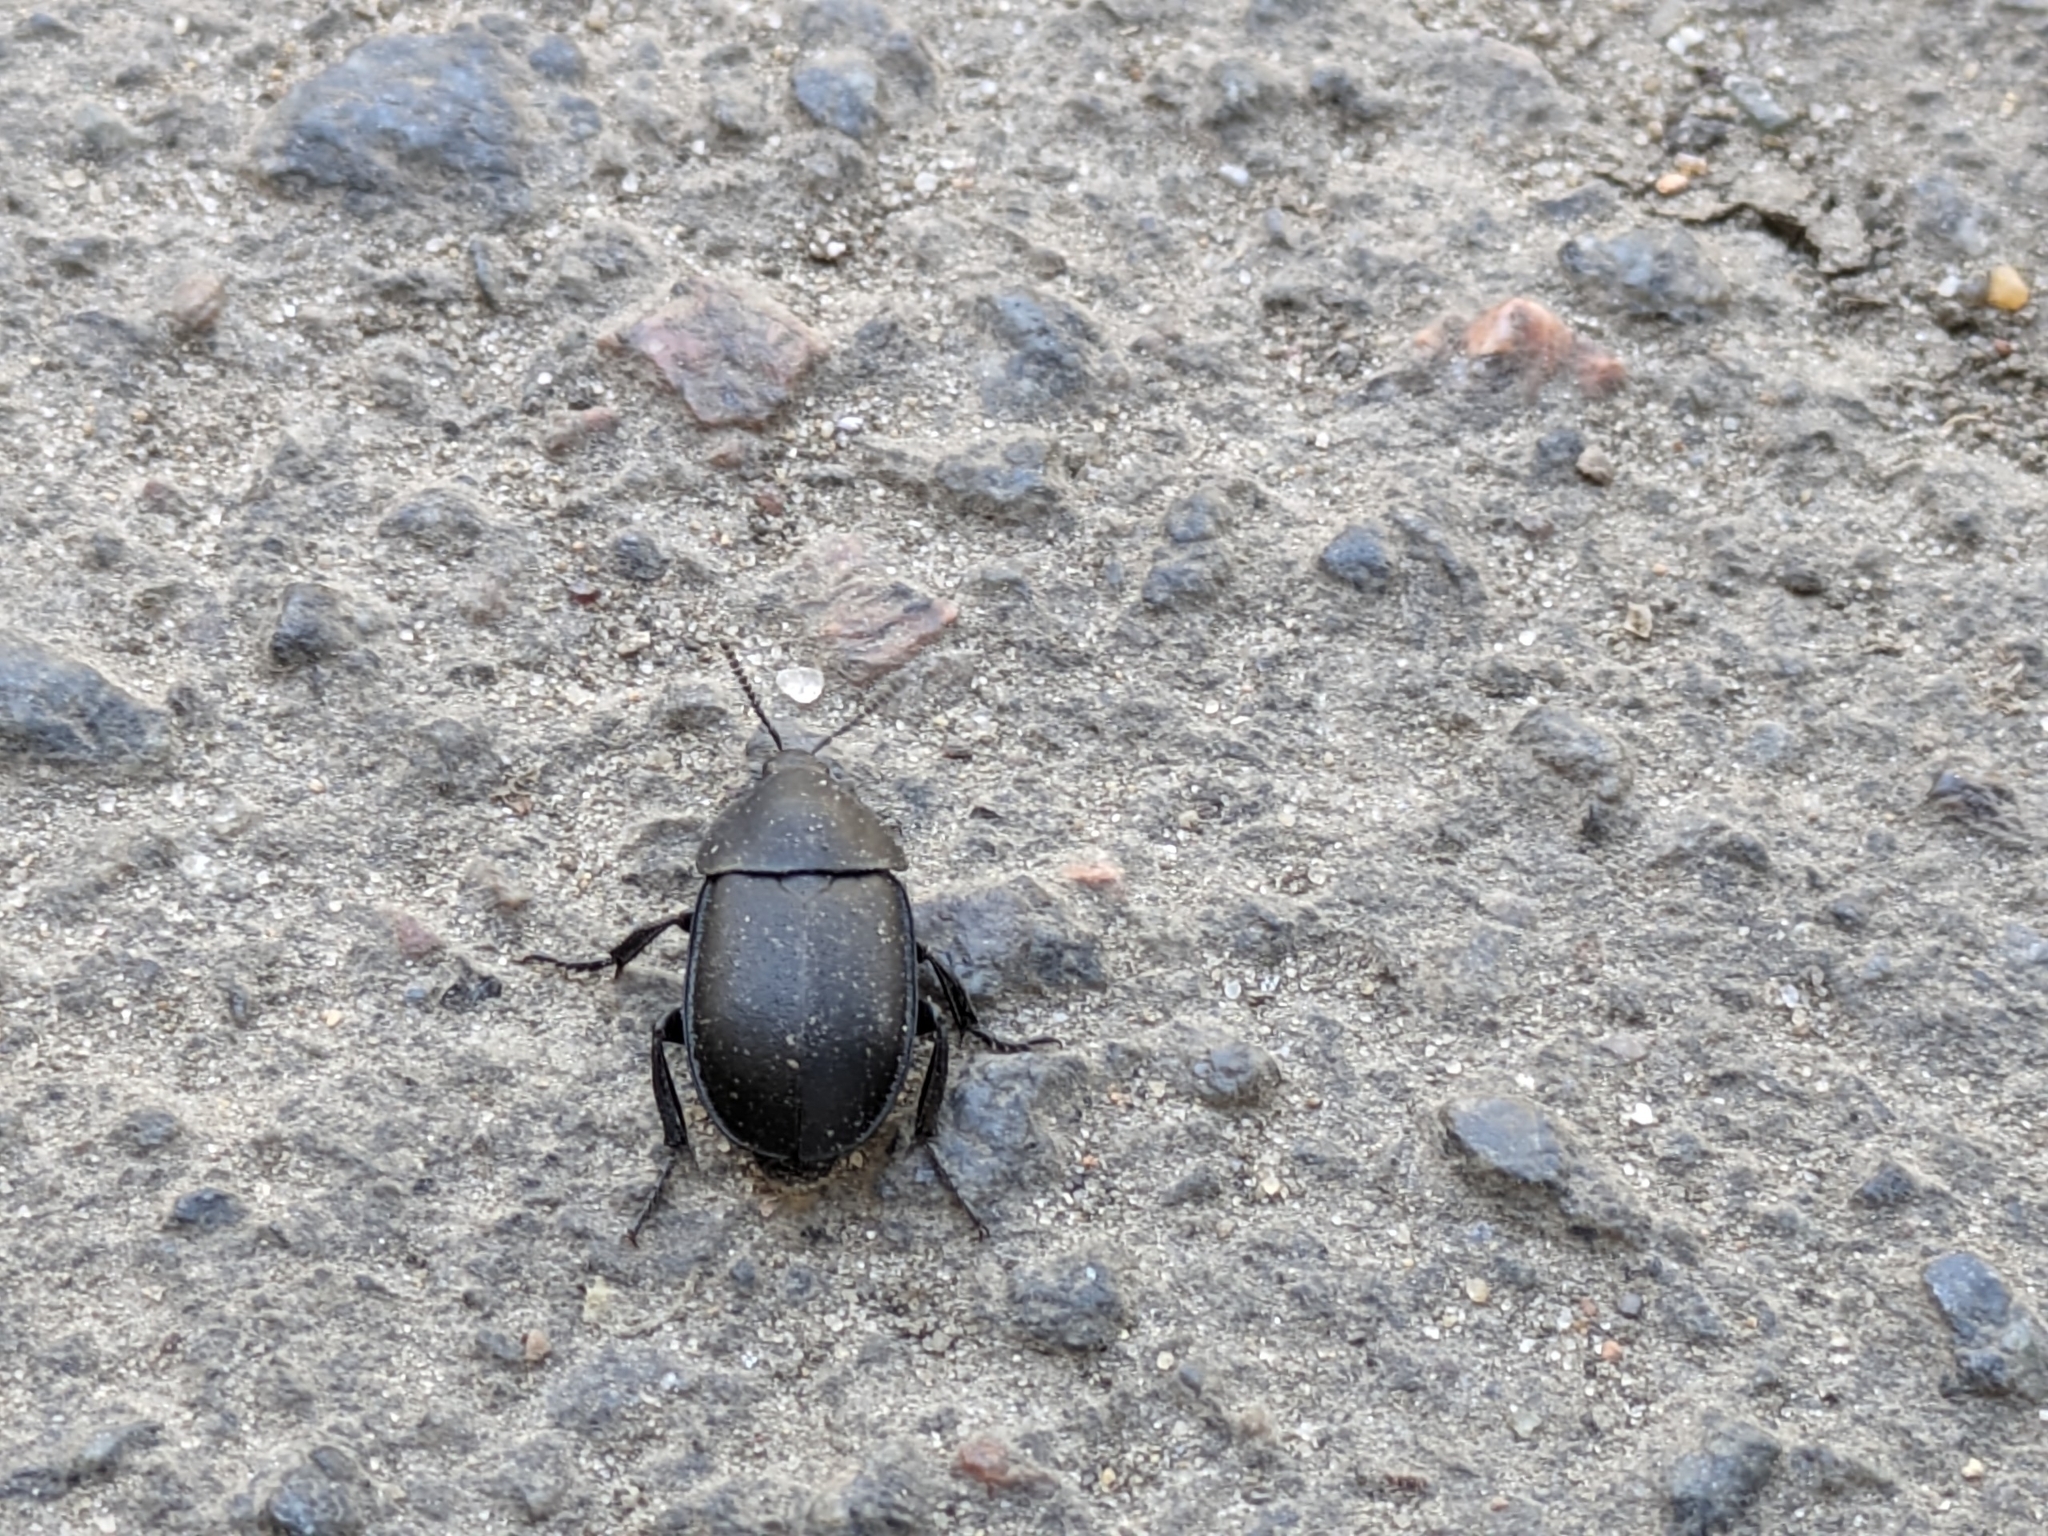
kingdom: Animalia
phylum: Arthropoda
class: Insecta
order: Coleoptera
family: Staphylinidae
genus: Silpha
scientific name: Silpha laevigata
